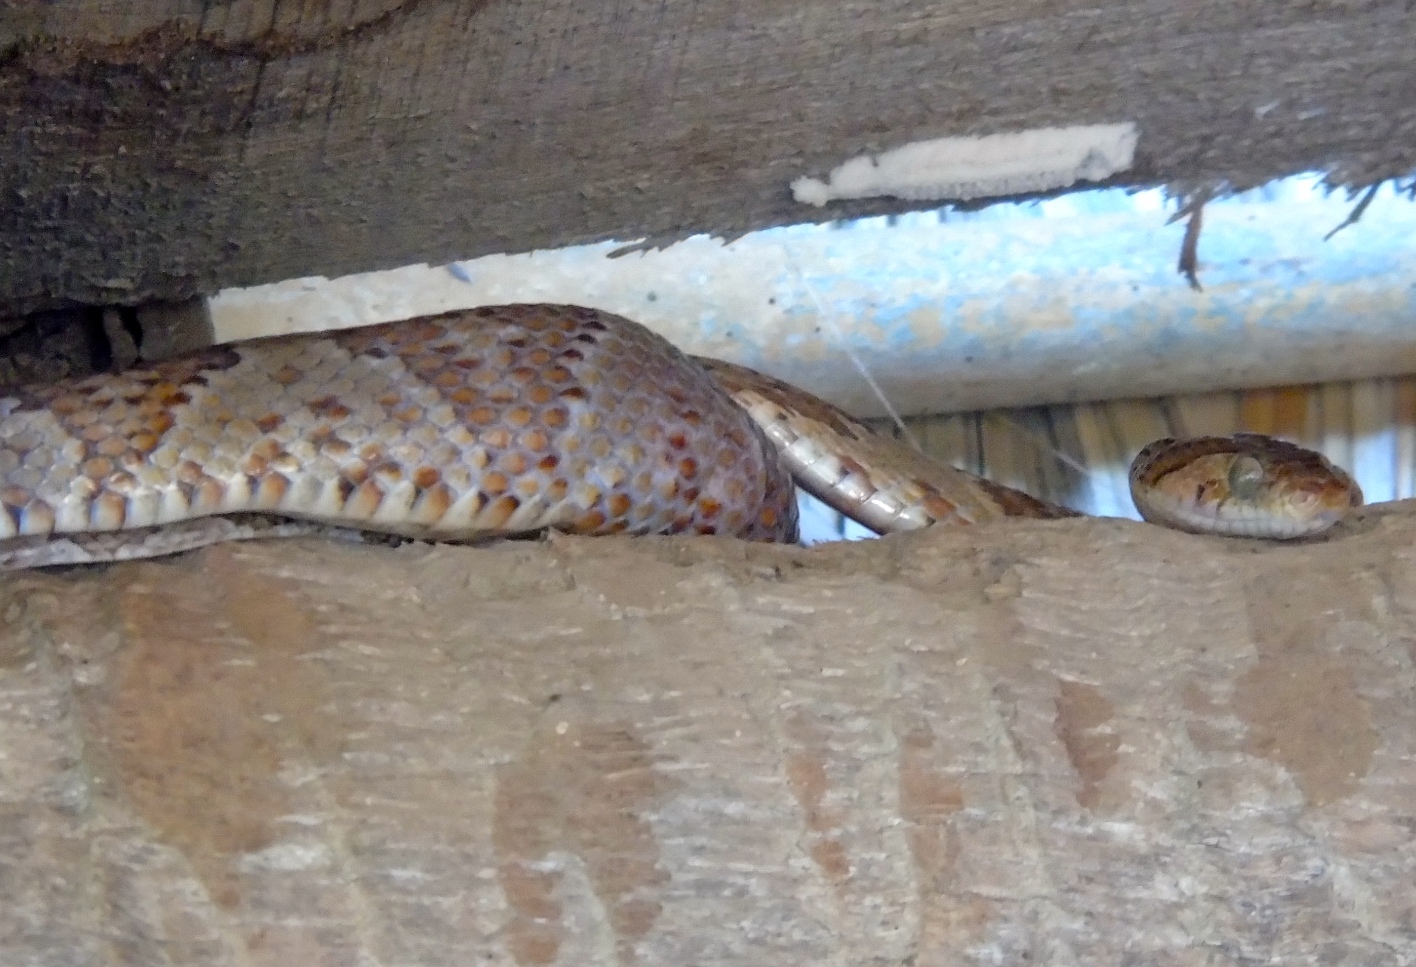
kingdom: Animalia
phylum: Chordata
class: Squamata
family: Colubridae
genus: Trimorphodon
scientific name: Trimorphodon paucimaculatus
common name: Sinaloan lyresnake
